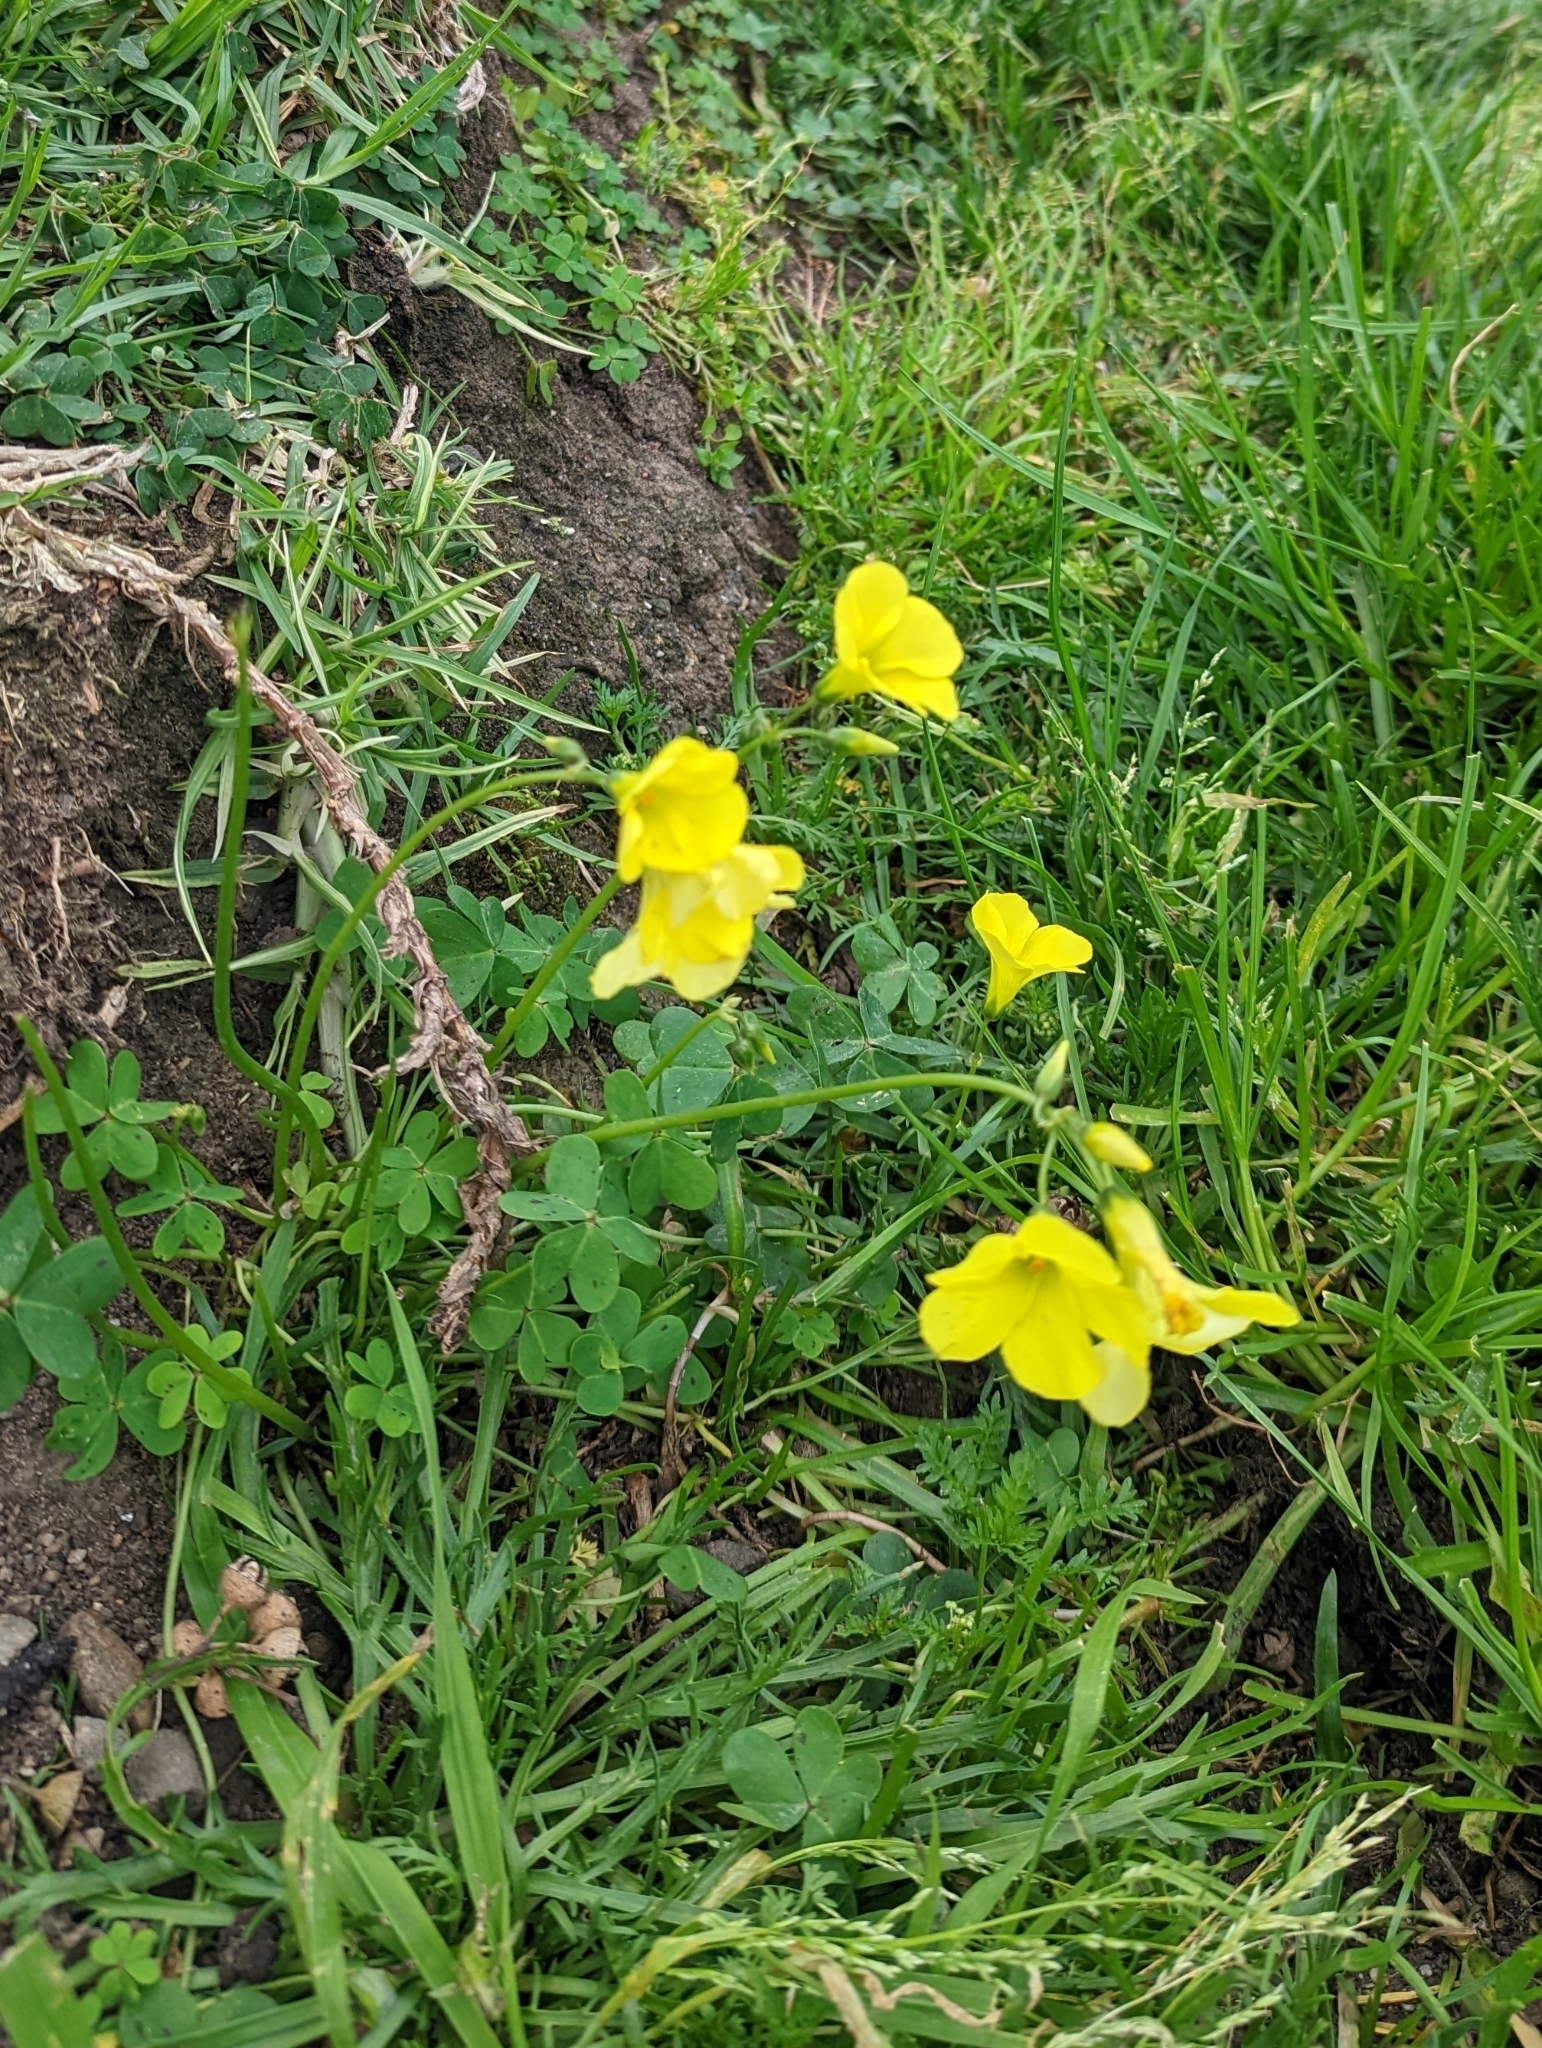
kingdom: Plantae
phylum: Tracheophyta
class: Magnoliopsida
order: Oxalidales
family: Oxalidaceae
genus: Oxalis
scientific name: Oxalis pes-caprae
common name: Bermuda-buttercup
